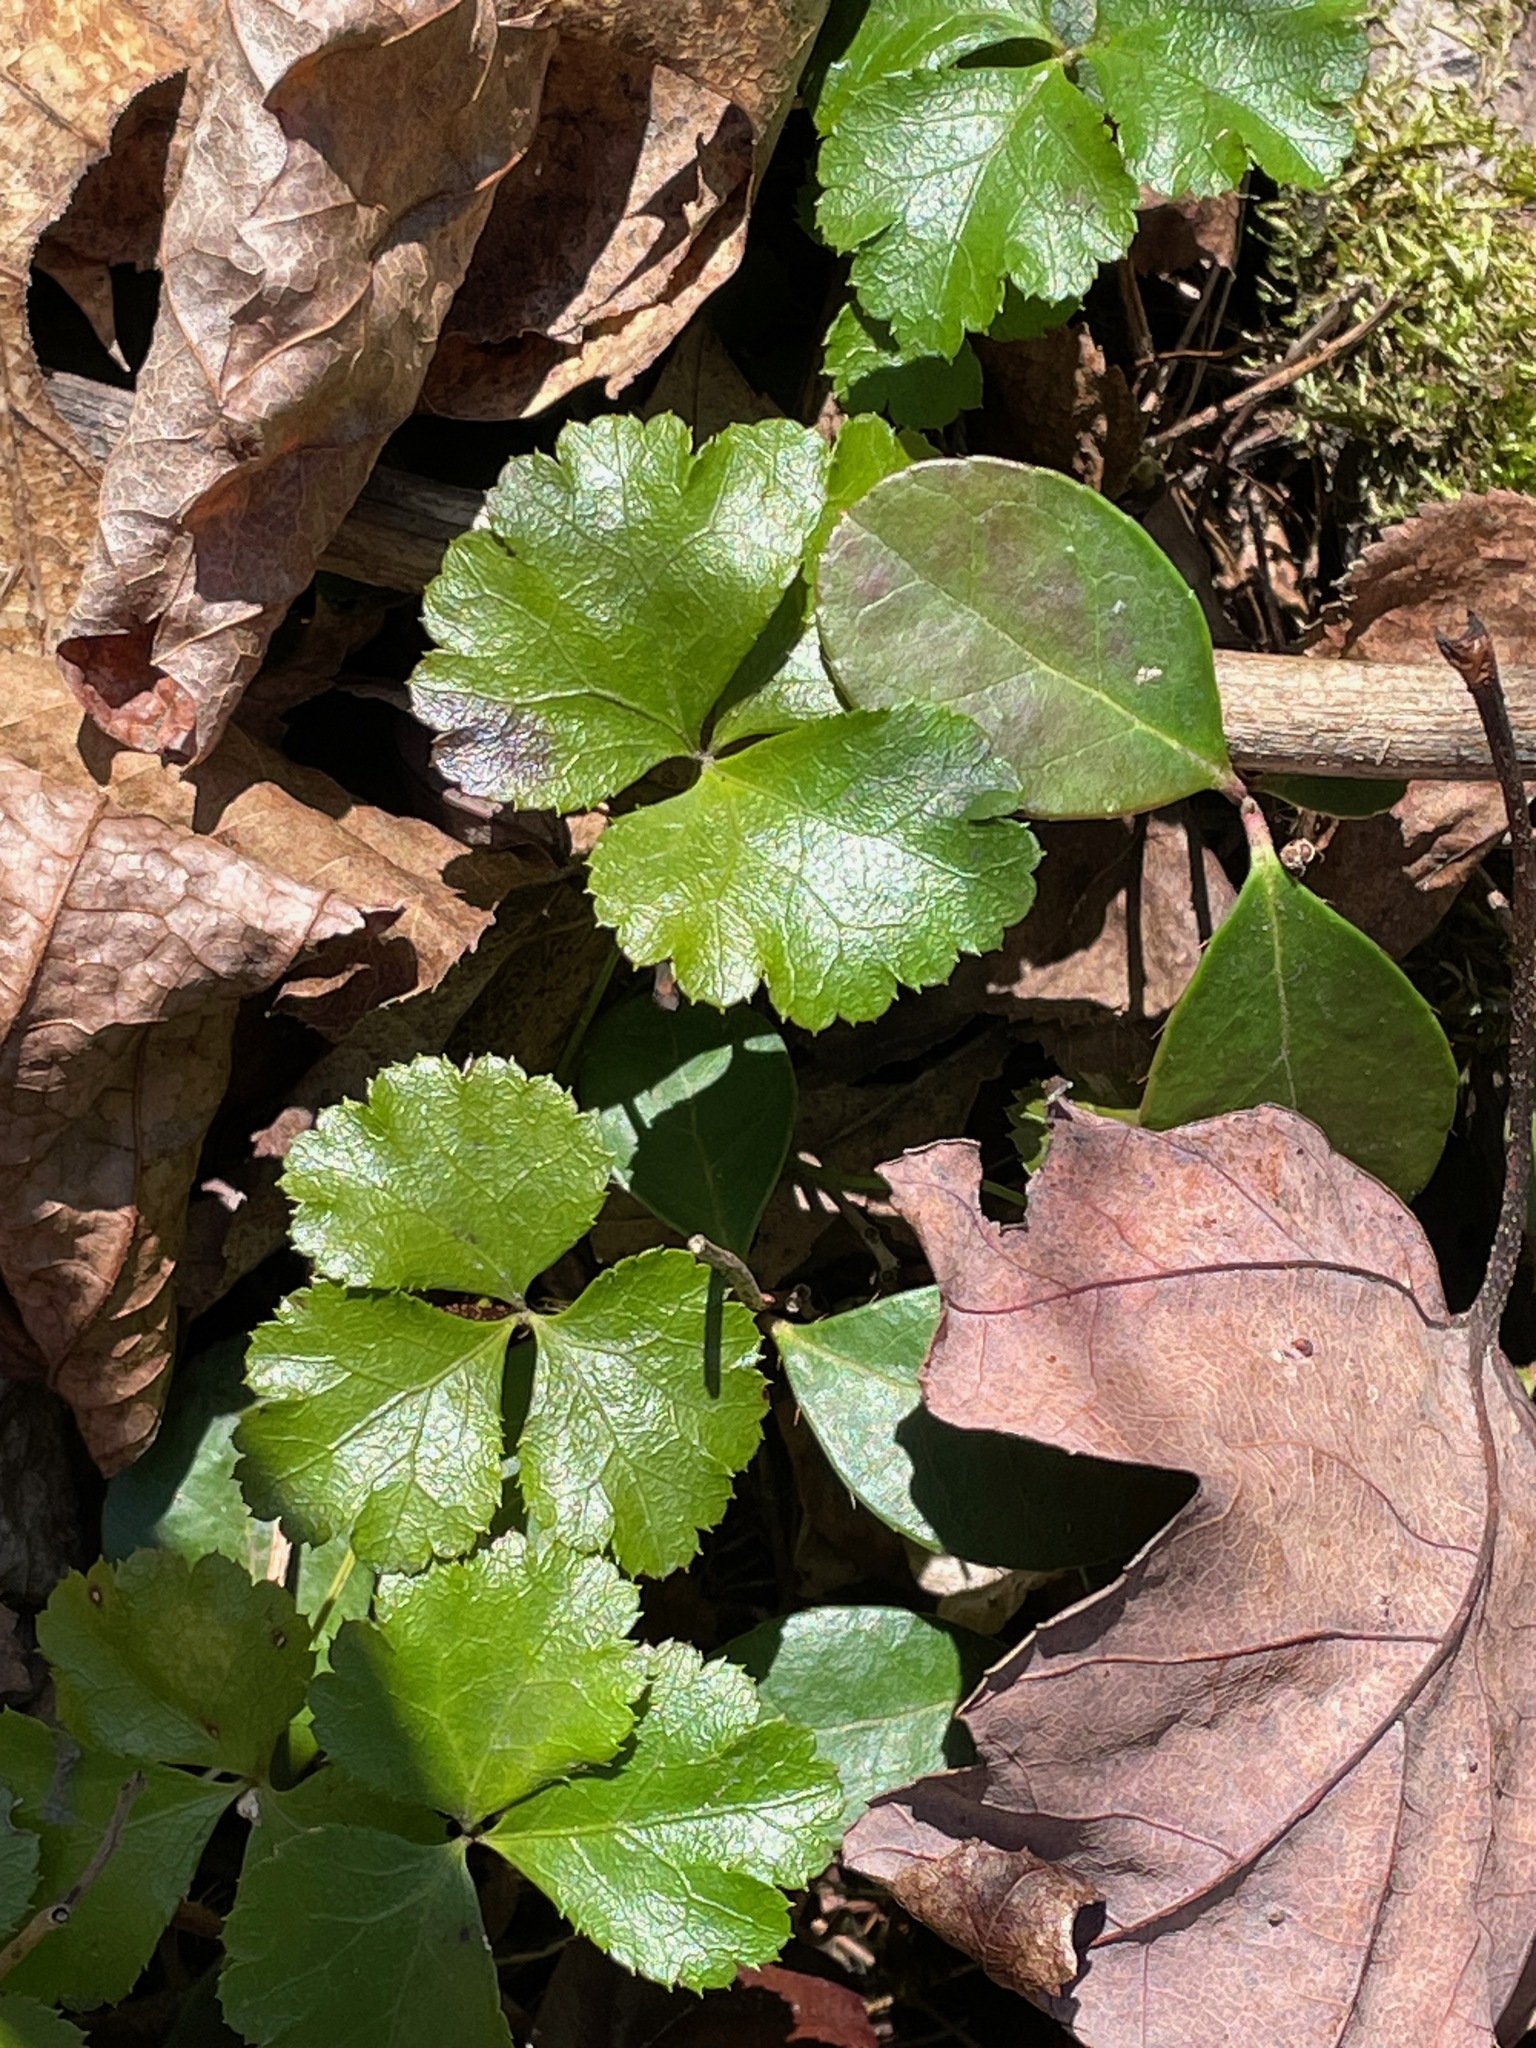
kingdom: Plantae
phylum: Tracheophyta
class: Magnoliopsida
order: Ranunculales
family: Ranunculaceae
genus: Coptis
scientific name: Coptis trifolia
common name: Canker-root
